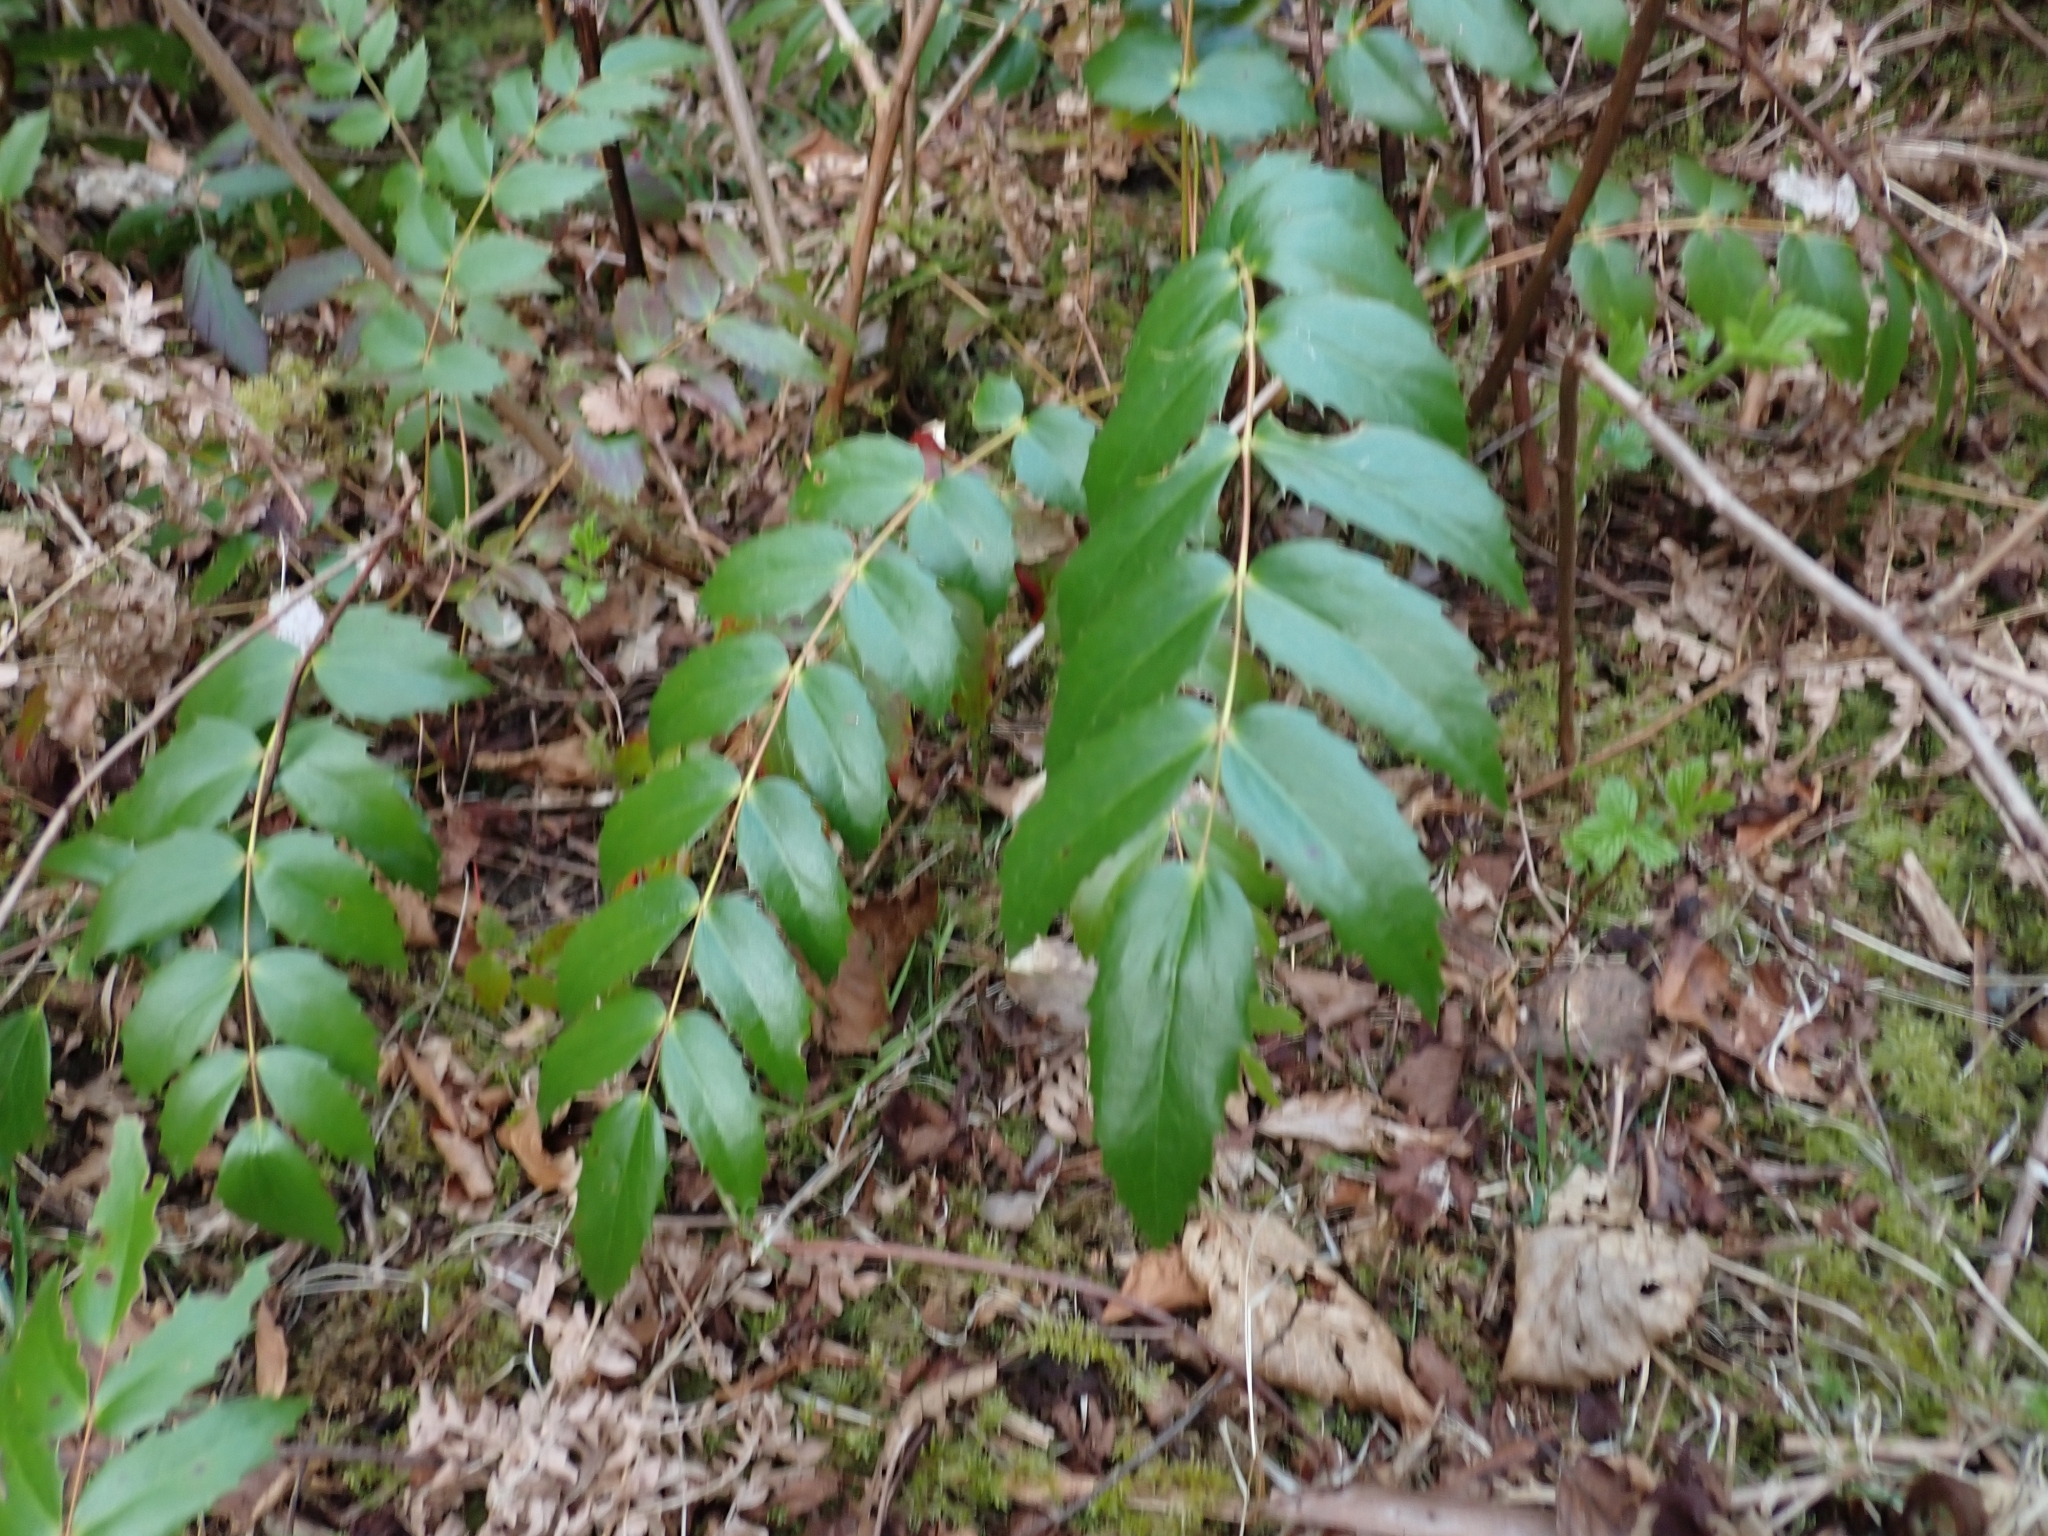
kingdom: Plantae
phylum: Tracheophyta
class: Magnoliopsida
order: Ranunculales
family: Berberidaceae
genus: Mahonia
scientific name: Mahonia nervosa
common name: Cascade oregon-grape
